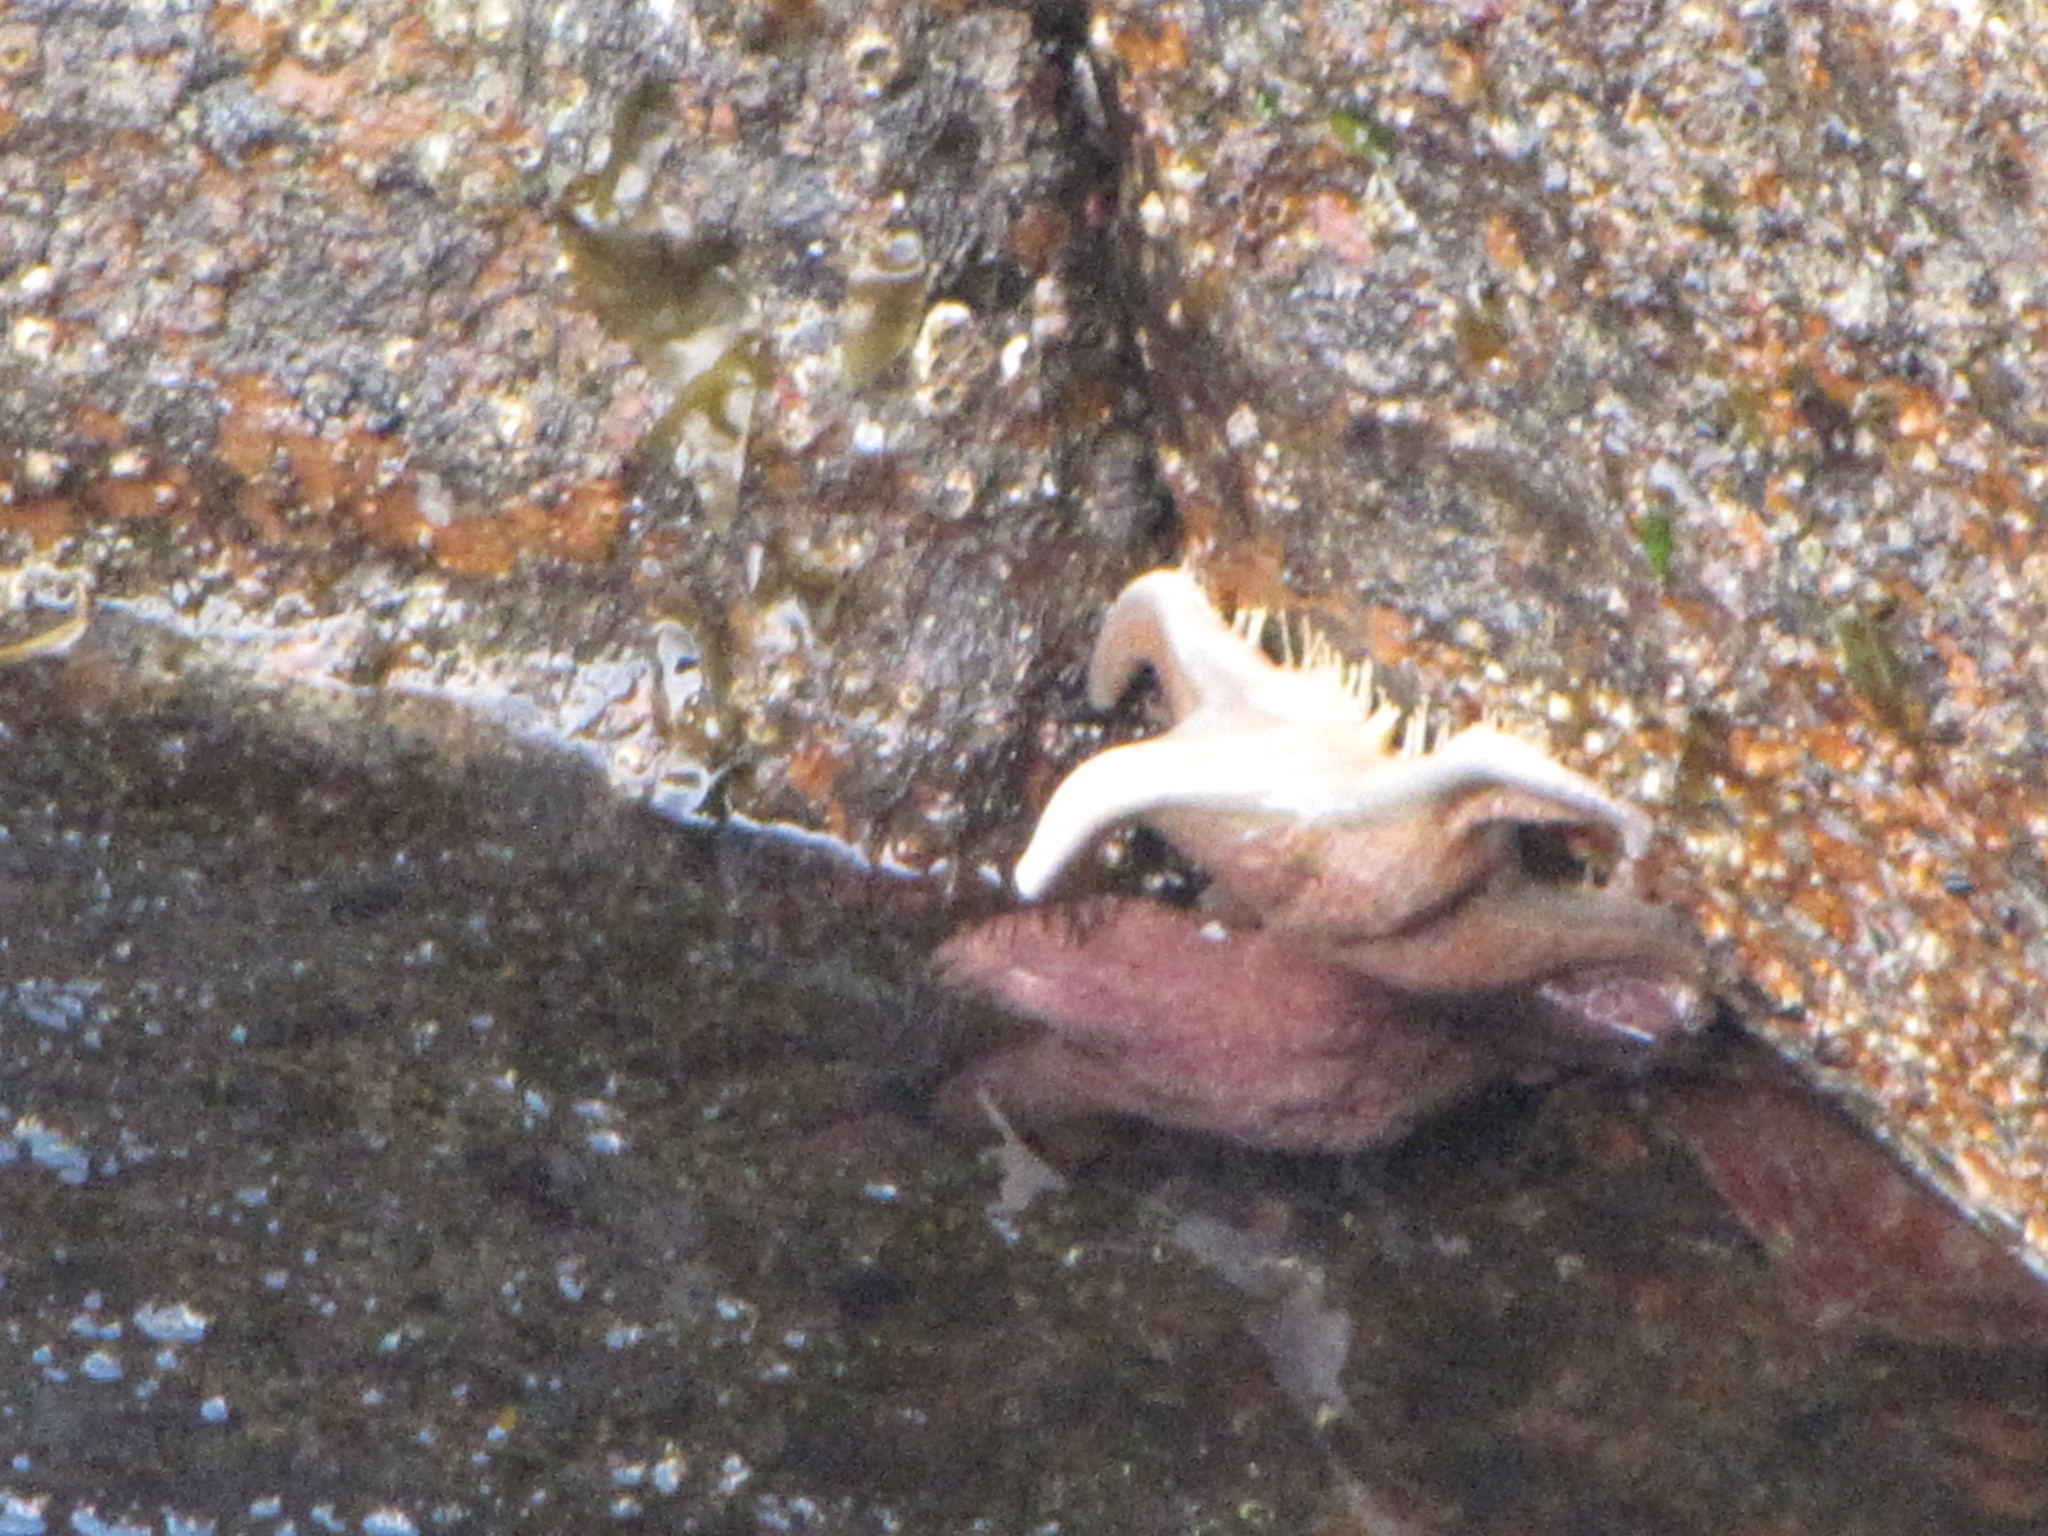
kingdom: Animalia
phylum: Echinodermata
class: Asteroidea
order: Valvatida
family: Asteropseidae
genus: Dermasterias
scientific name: Dermasterias imbricata
